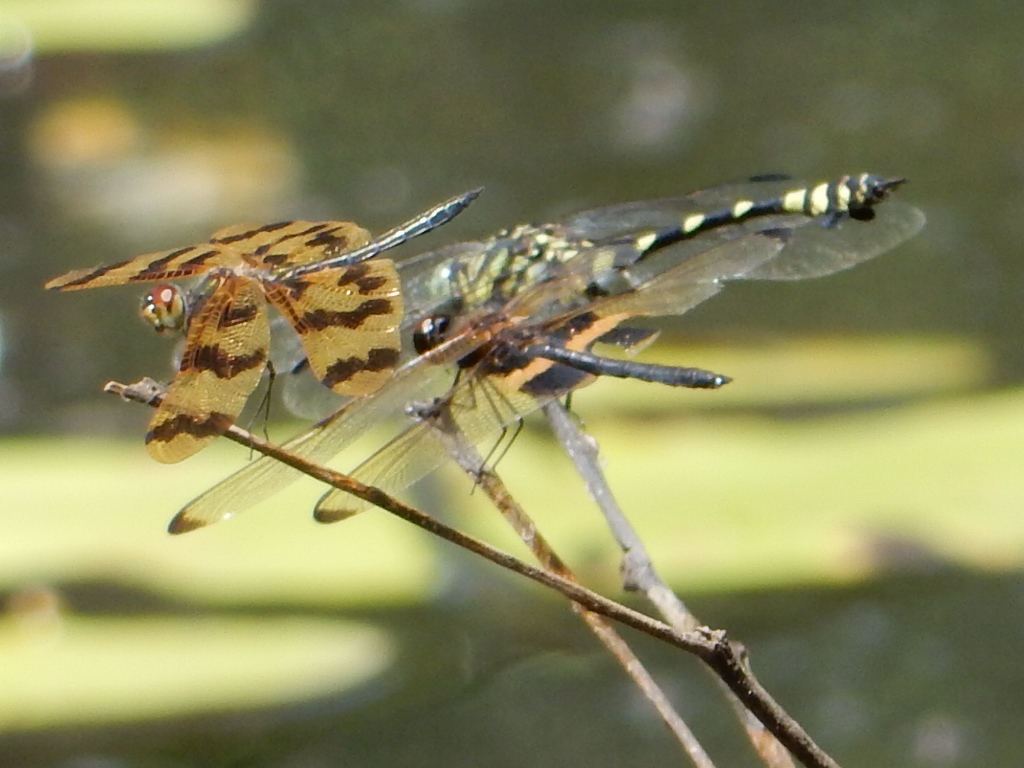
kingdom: Animalia
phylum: Arthropoda
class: Insecta
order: Odonata
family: Libellulidae
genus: Rhyothemis
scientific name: Rhyothemis phyllis
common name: Yellow-barred flutterer
